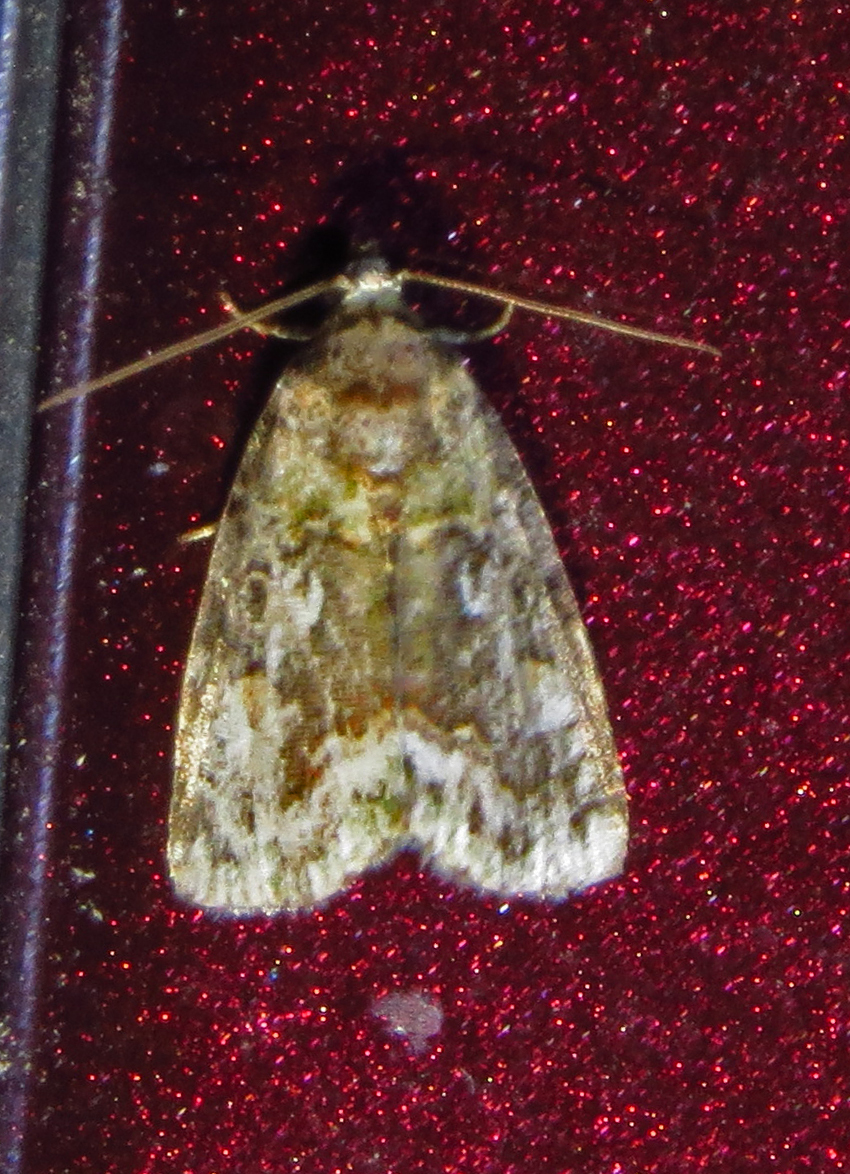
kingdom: Animalia
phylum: Arthropoda
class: Insecta
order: Lepidoptera
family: Noctuidae
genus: Lithacodia
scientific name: Lithacodia musta
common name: Small mossy glyph
